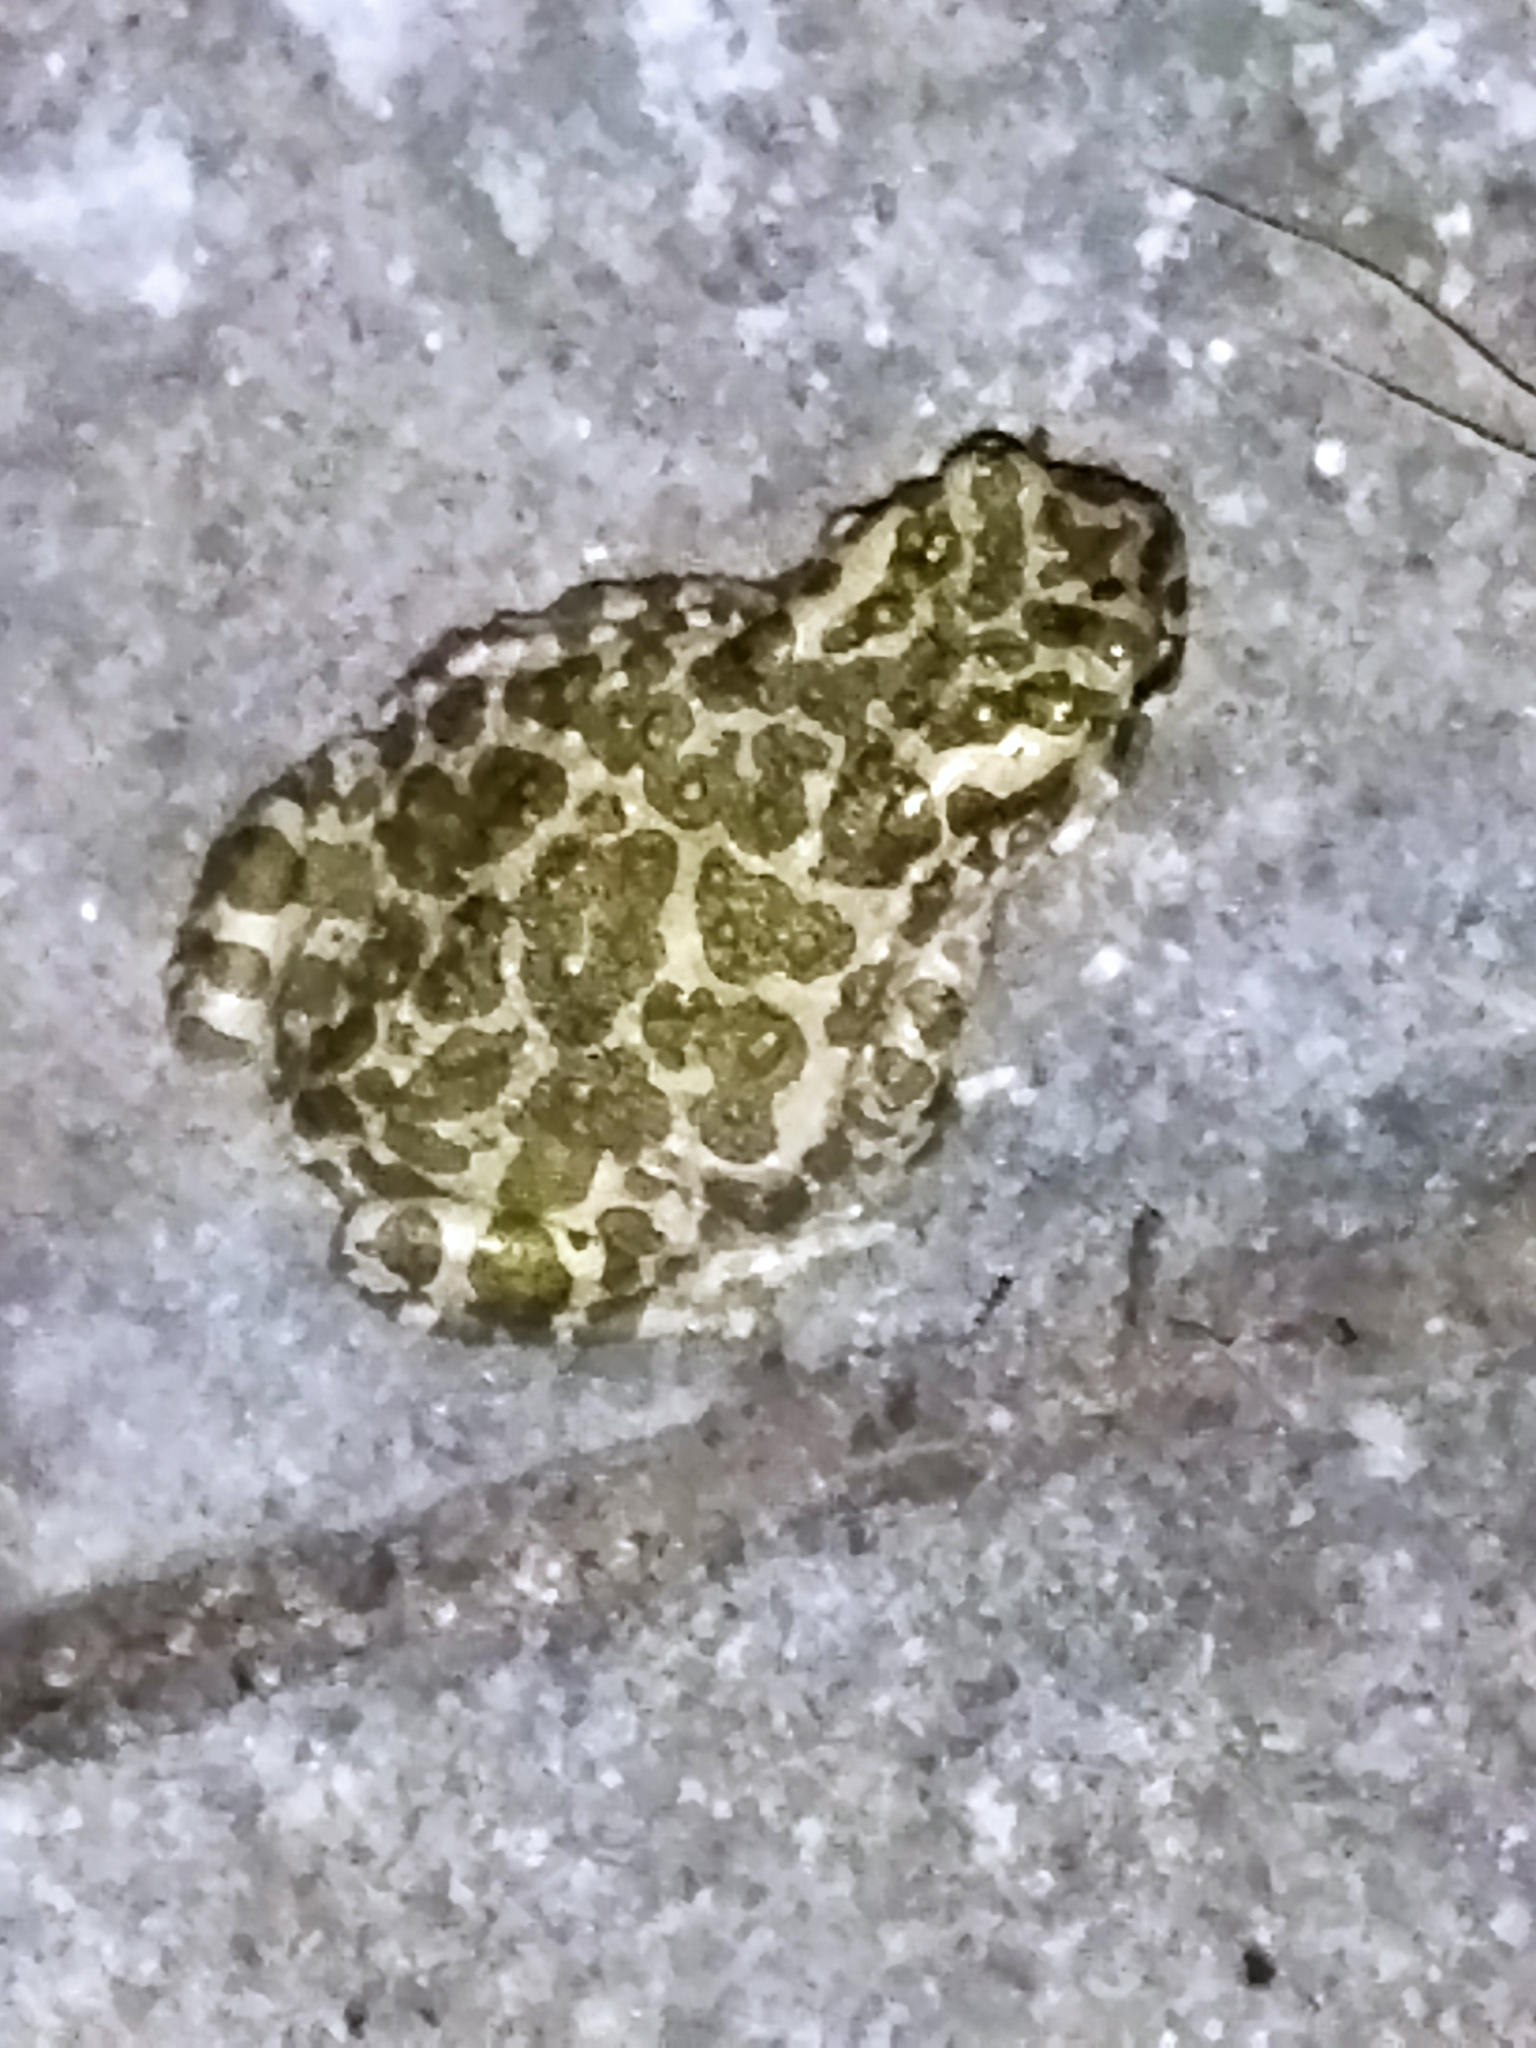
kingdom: Animalia
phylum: Chordata
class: Amphibia
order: Anura
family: Bufonidae
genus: Bufotes
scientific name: Bufotes viridis
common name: European green toad
